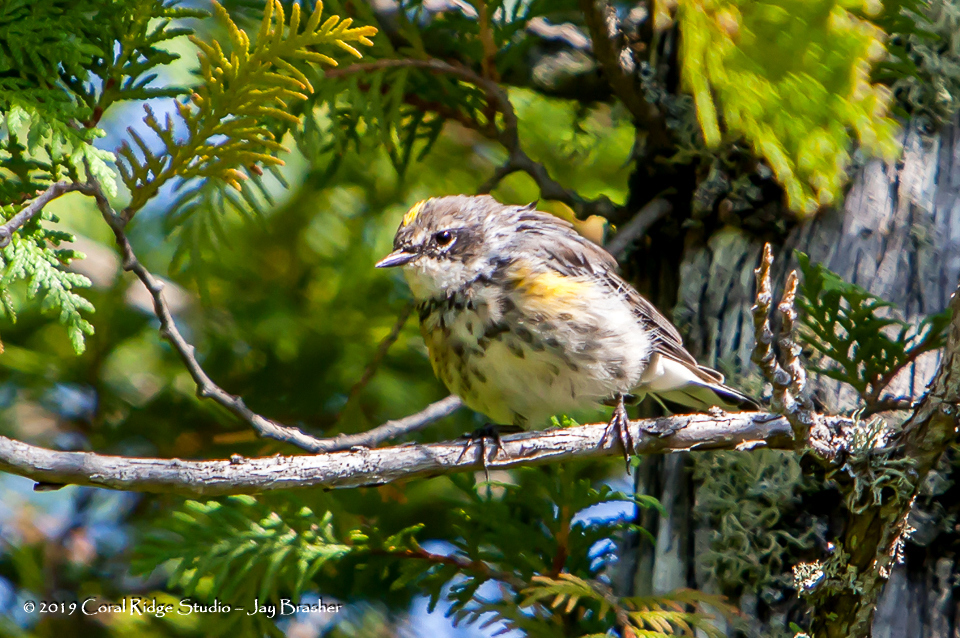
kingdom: Animalia
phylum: Chordata
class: Aves
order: Passeriformes
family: Parulidae
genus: Setophaga
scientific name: Setophaga coronata
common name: Myrtle warbler
